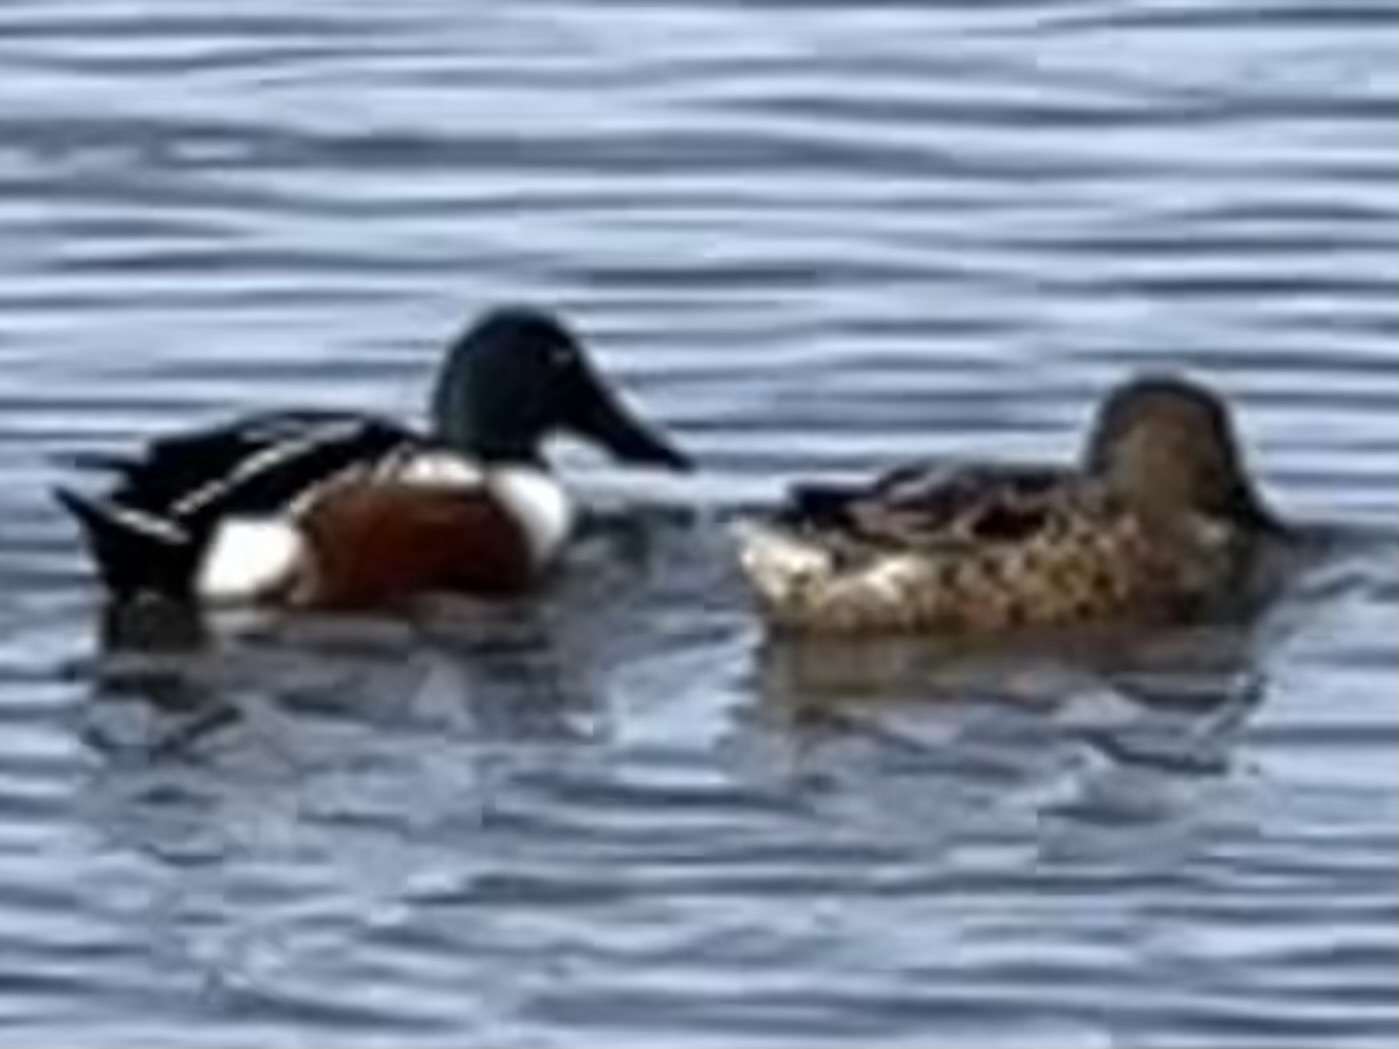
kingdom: Animalia
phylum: Chordata
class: Aves
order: Anseriformes
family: Anatidae
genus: Spatula
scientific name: Spatula clypeata
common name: Northern shoveler
